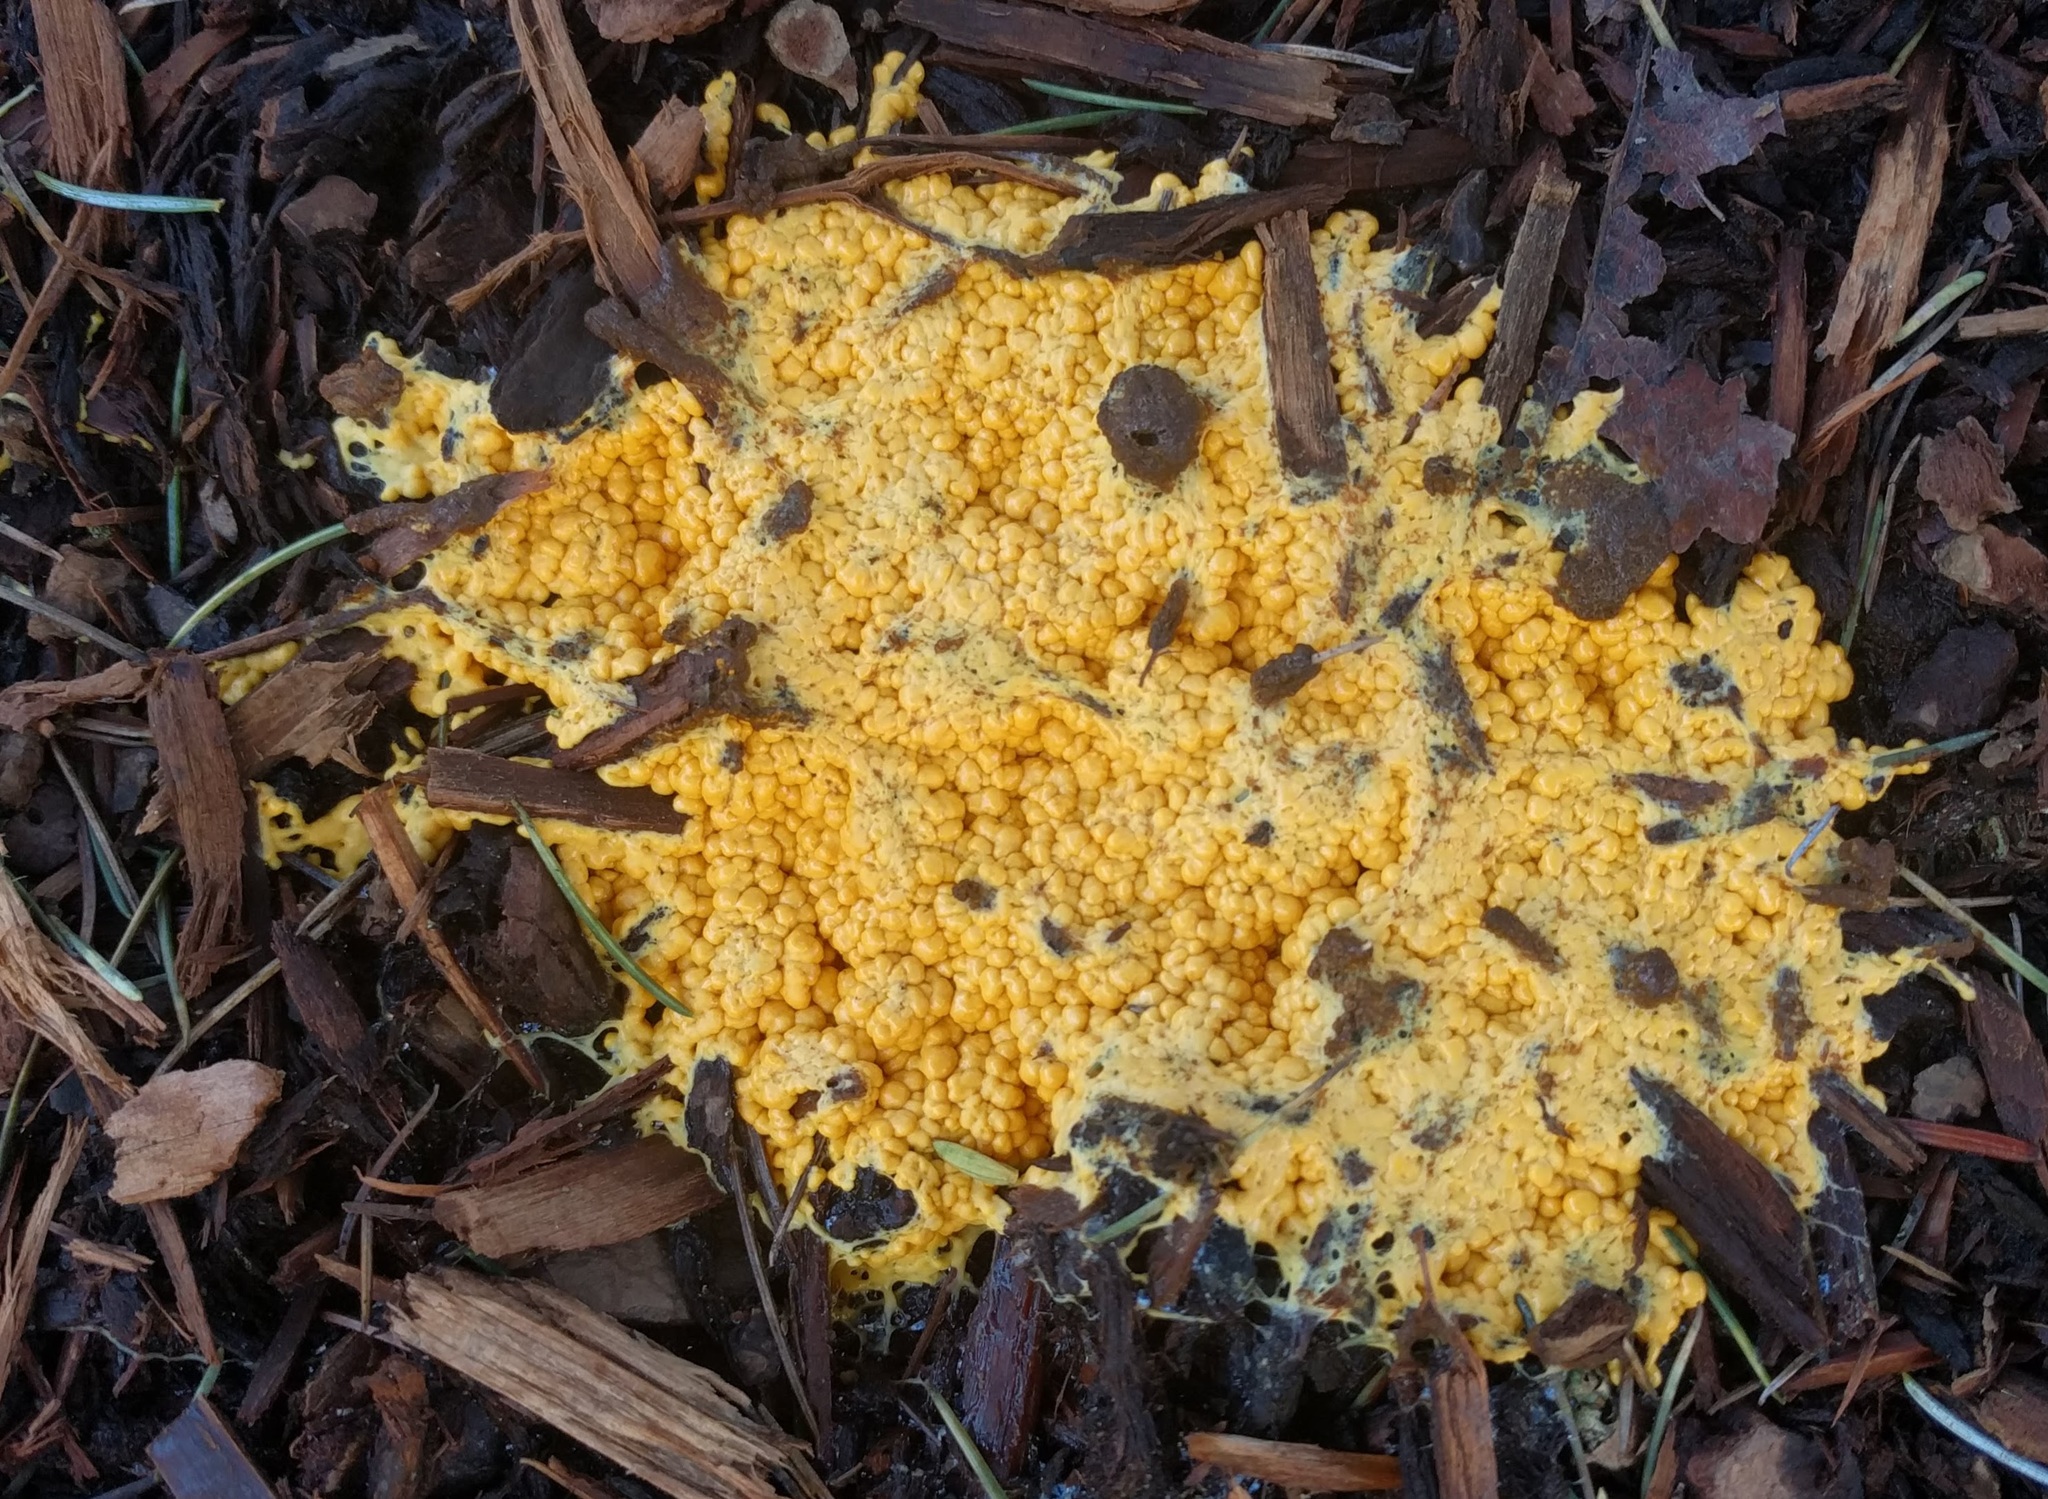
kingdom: Protozoa
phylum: Mycetozoa
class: Myxomycetes
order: Physarales
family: Physaraceae
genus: Fuligo
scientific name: Fuligo septica
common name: Dog vomit slime mold
